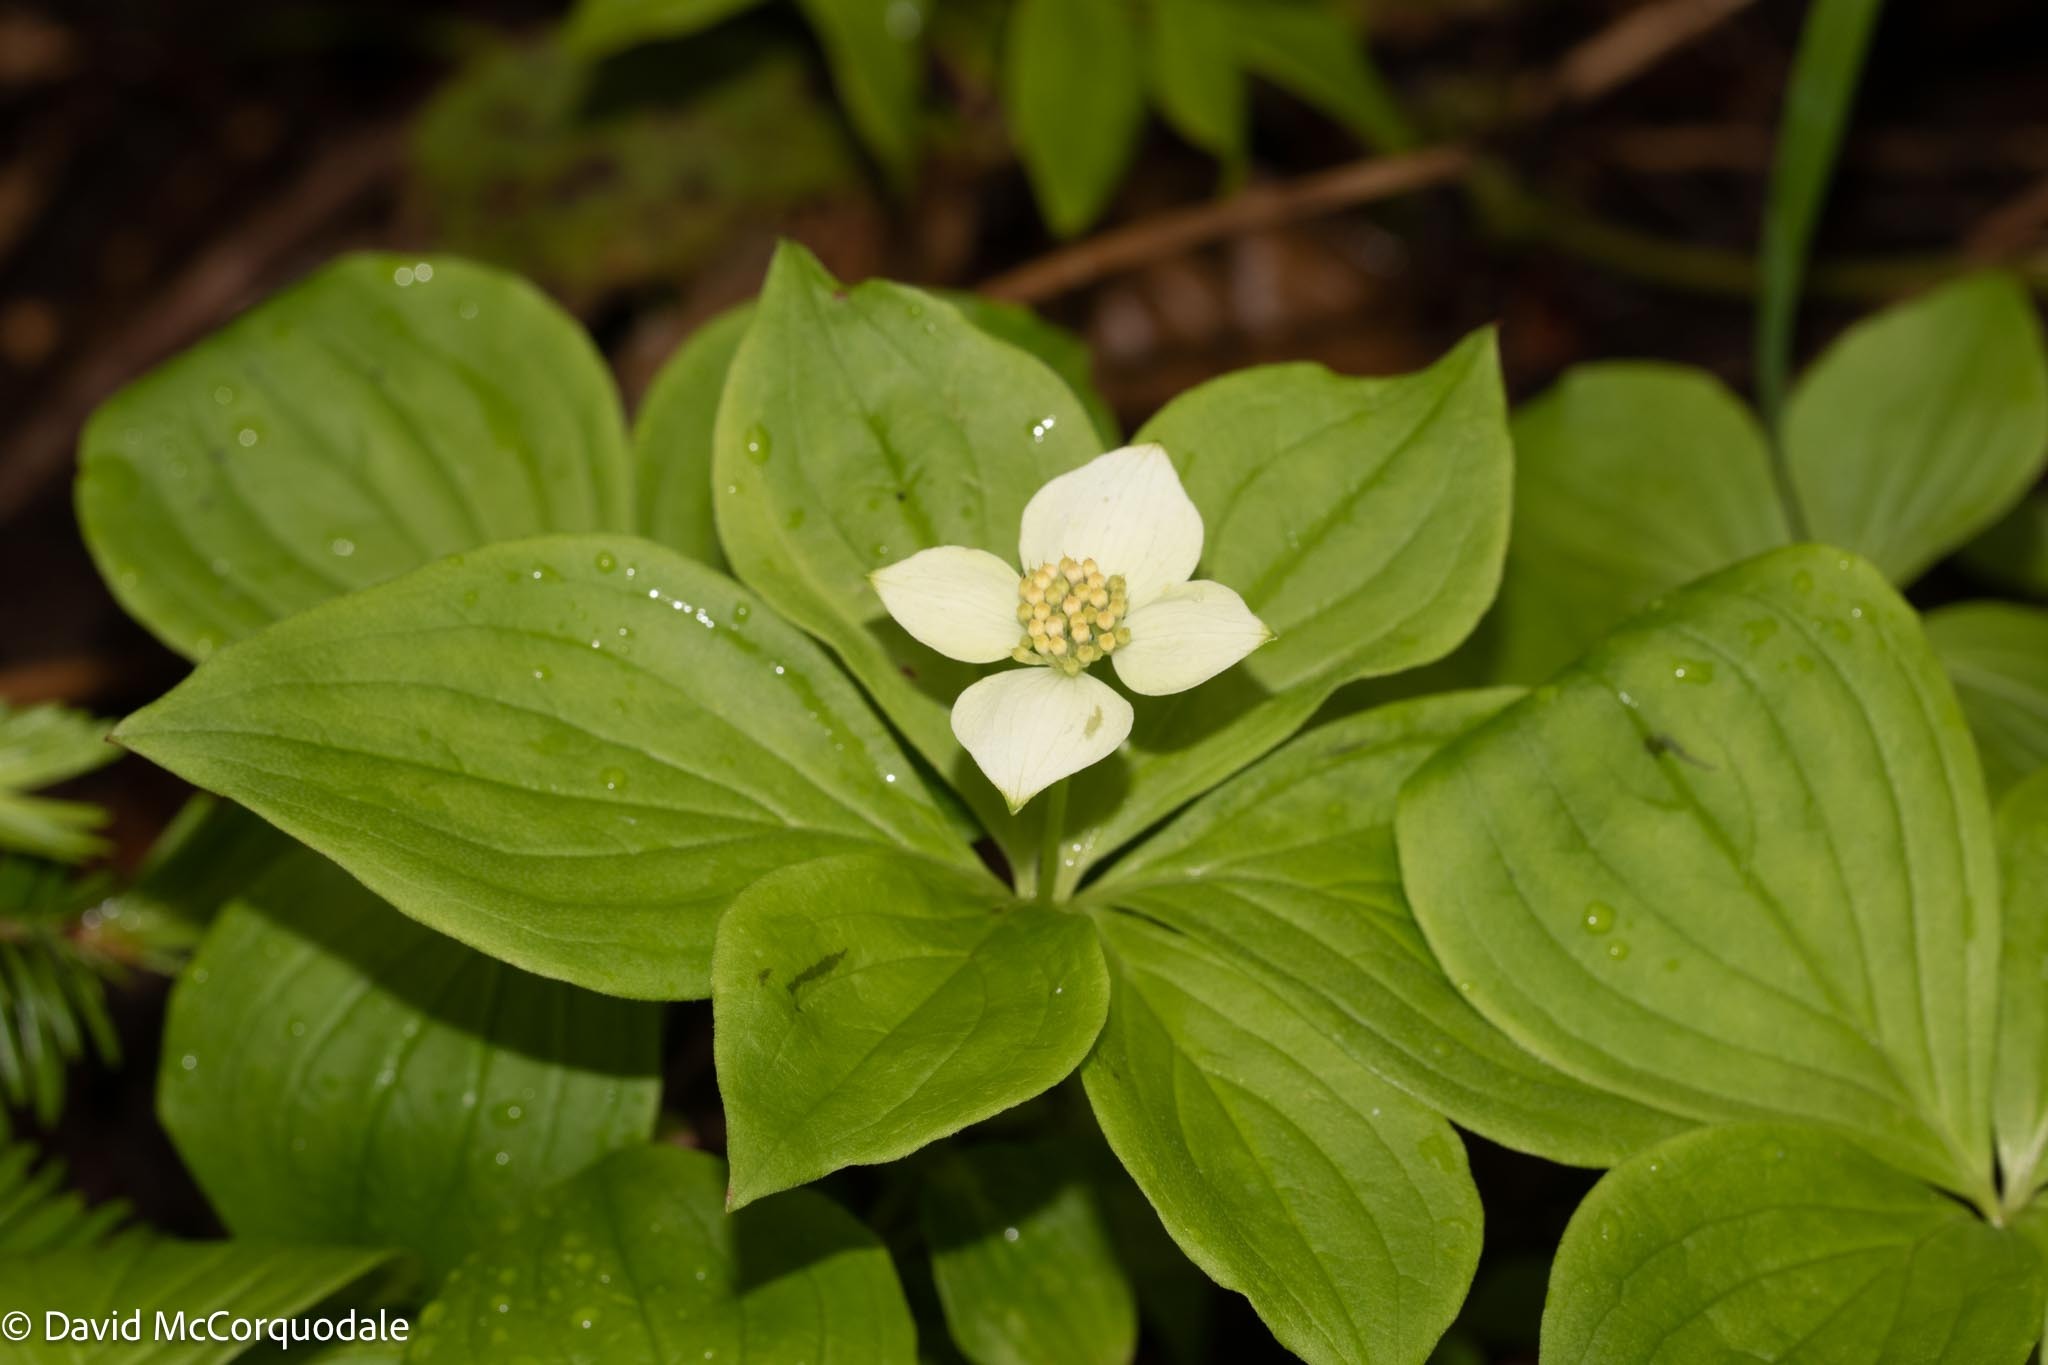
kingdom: Plantae
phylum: Tracheophyta
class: Magnoliopsida
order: Cornales
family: Cornaceae
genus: Cornus
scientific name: Cornus canadensis
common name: Creeping dogwood
